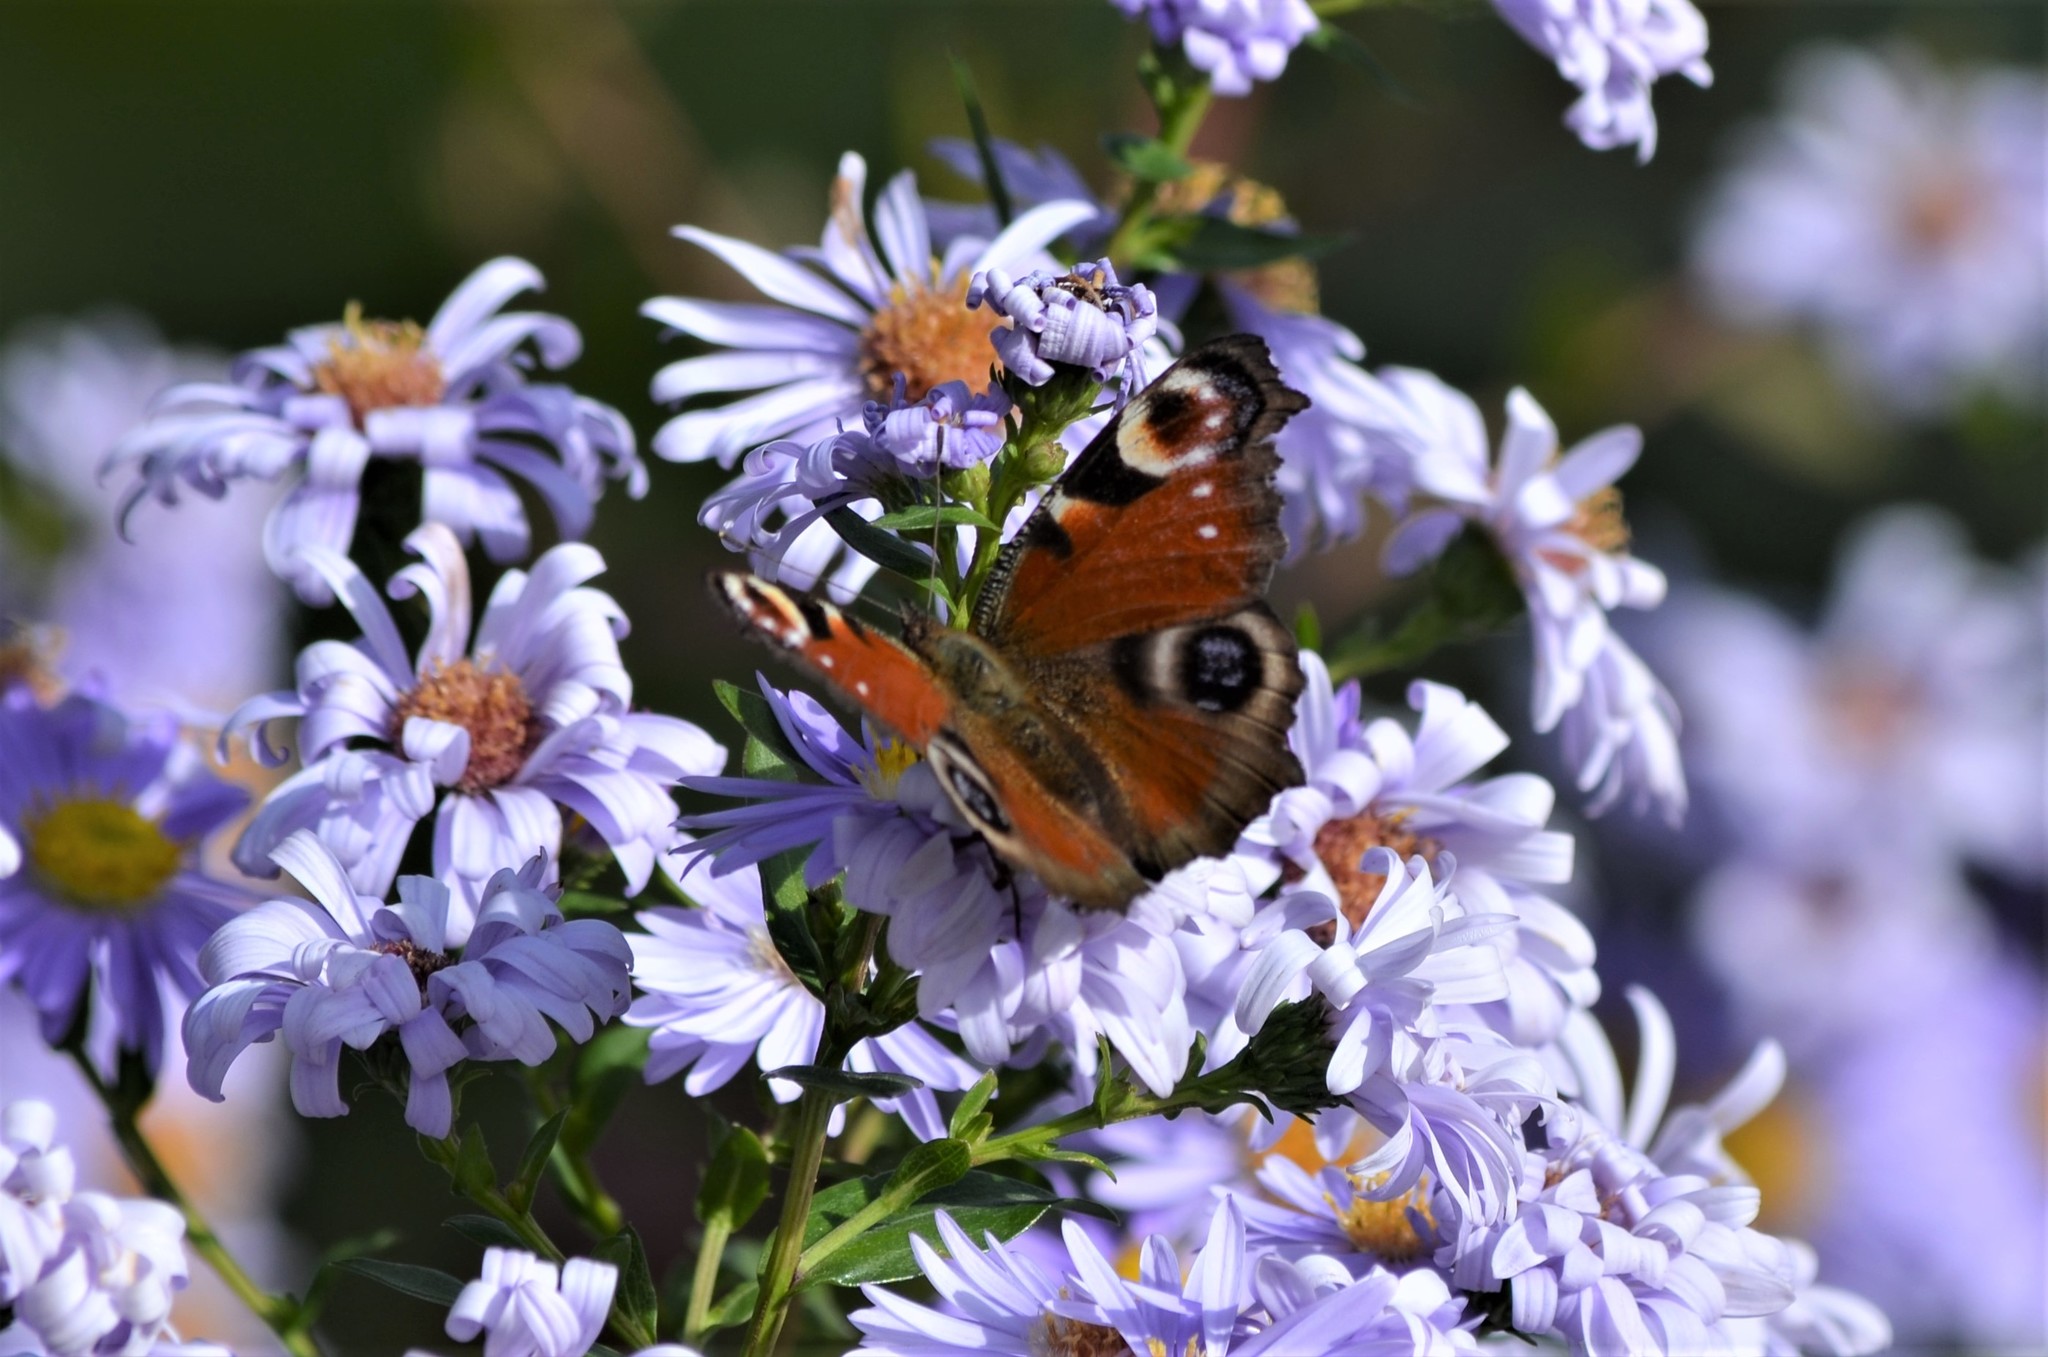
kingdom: Animalia
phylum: Arthropoda
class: Insecta
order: Lepidoptera
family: Nymphalidae
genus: Aglais
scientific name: Aglais io
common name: Peacock
